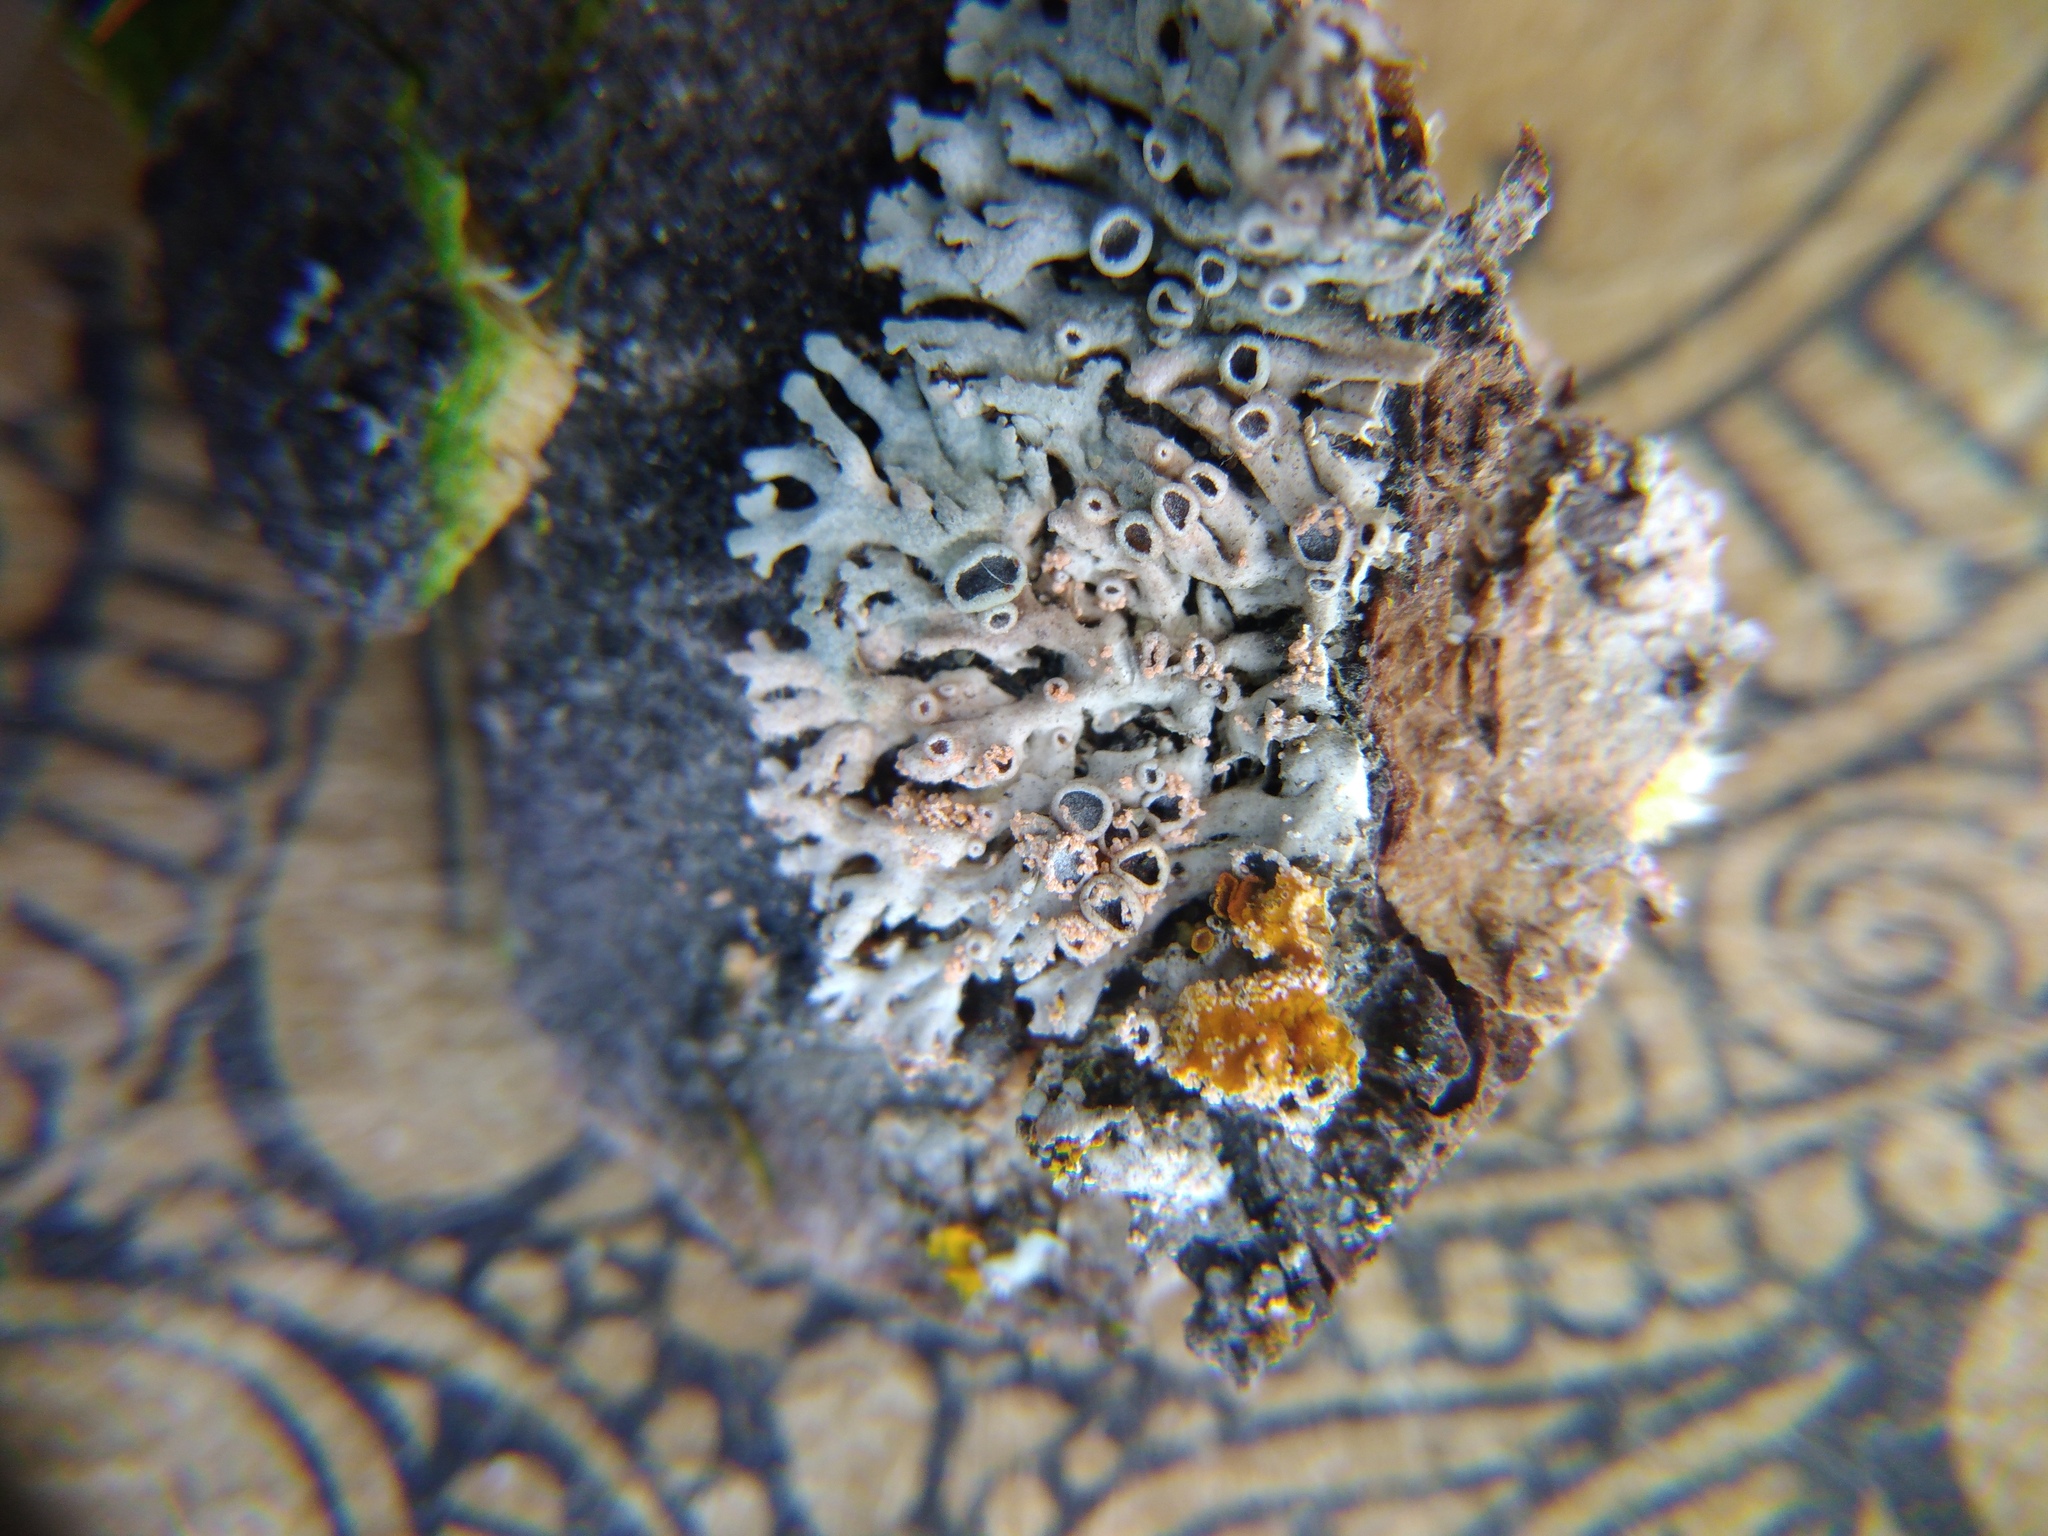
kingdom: Fungi
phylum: Basidiomycota
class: Agaricomycetes
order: Corticiales
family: Corticiaceae
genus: Erythricium
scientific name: Erythricium aurantiacum
